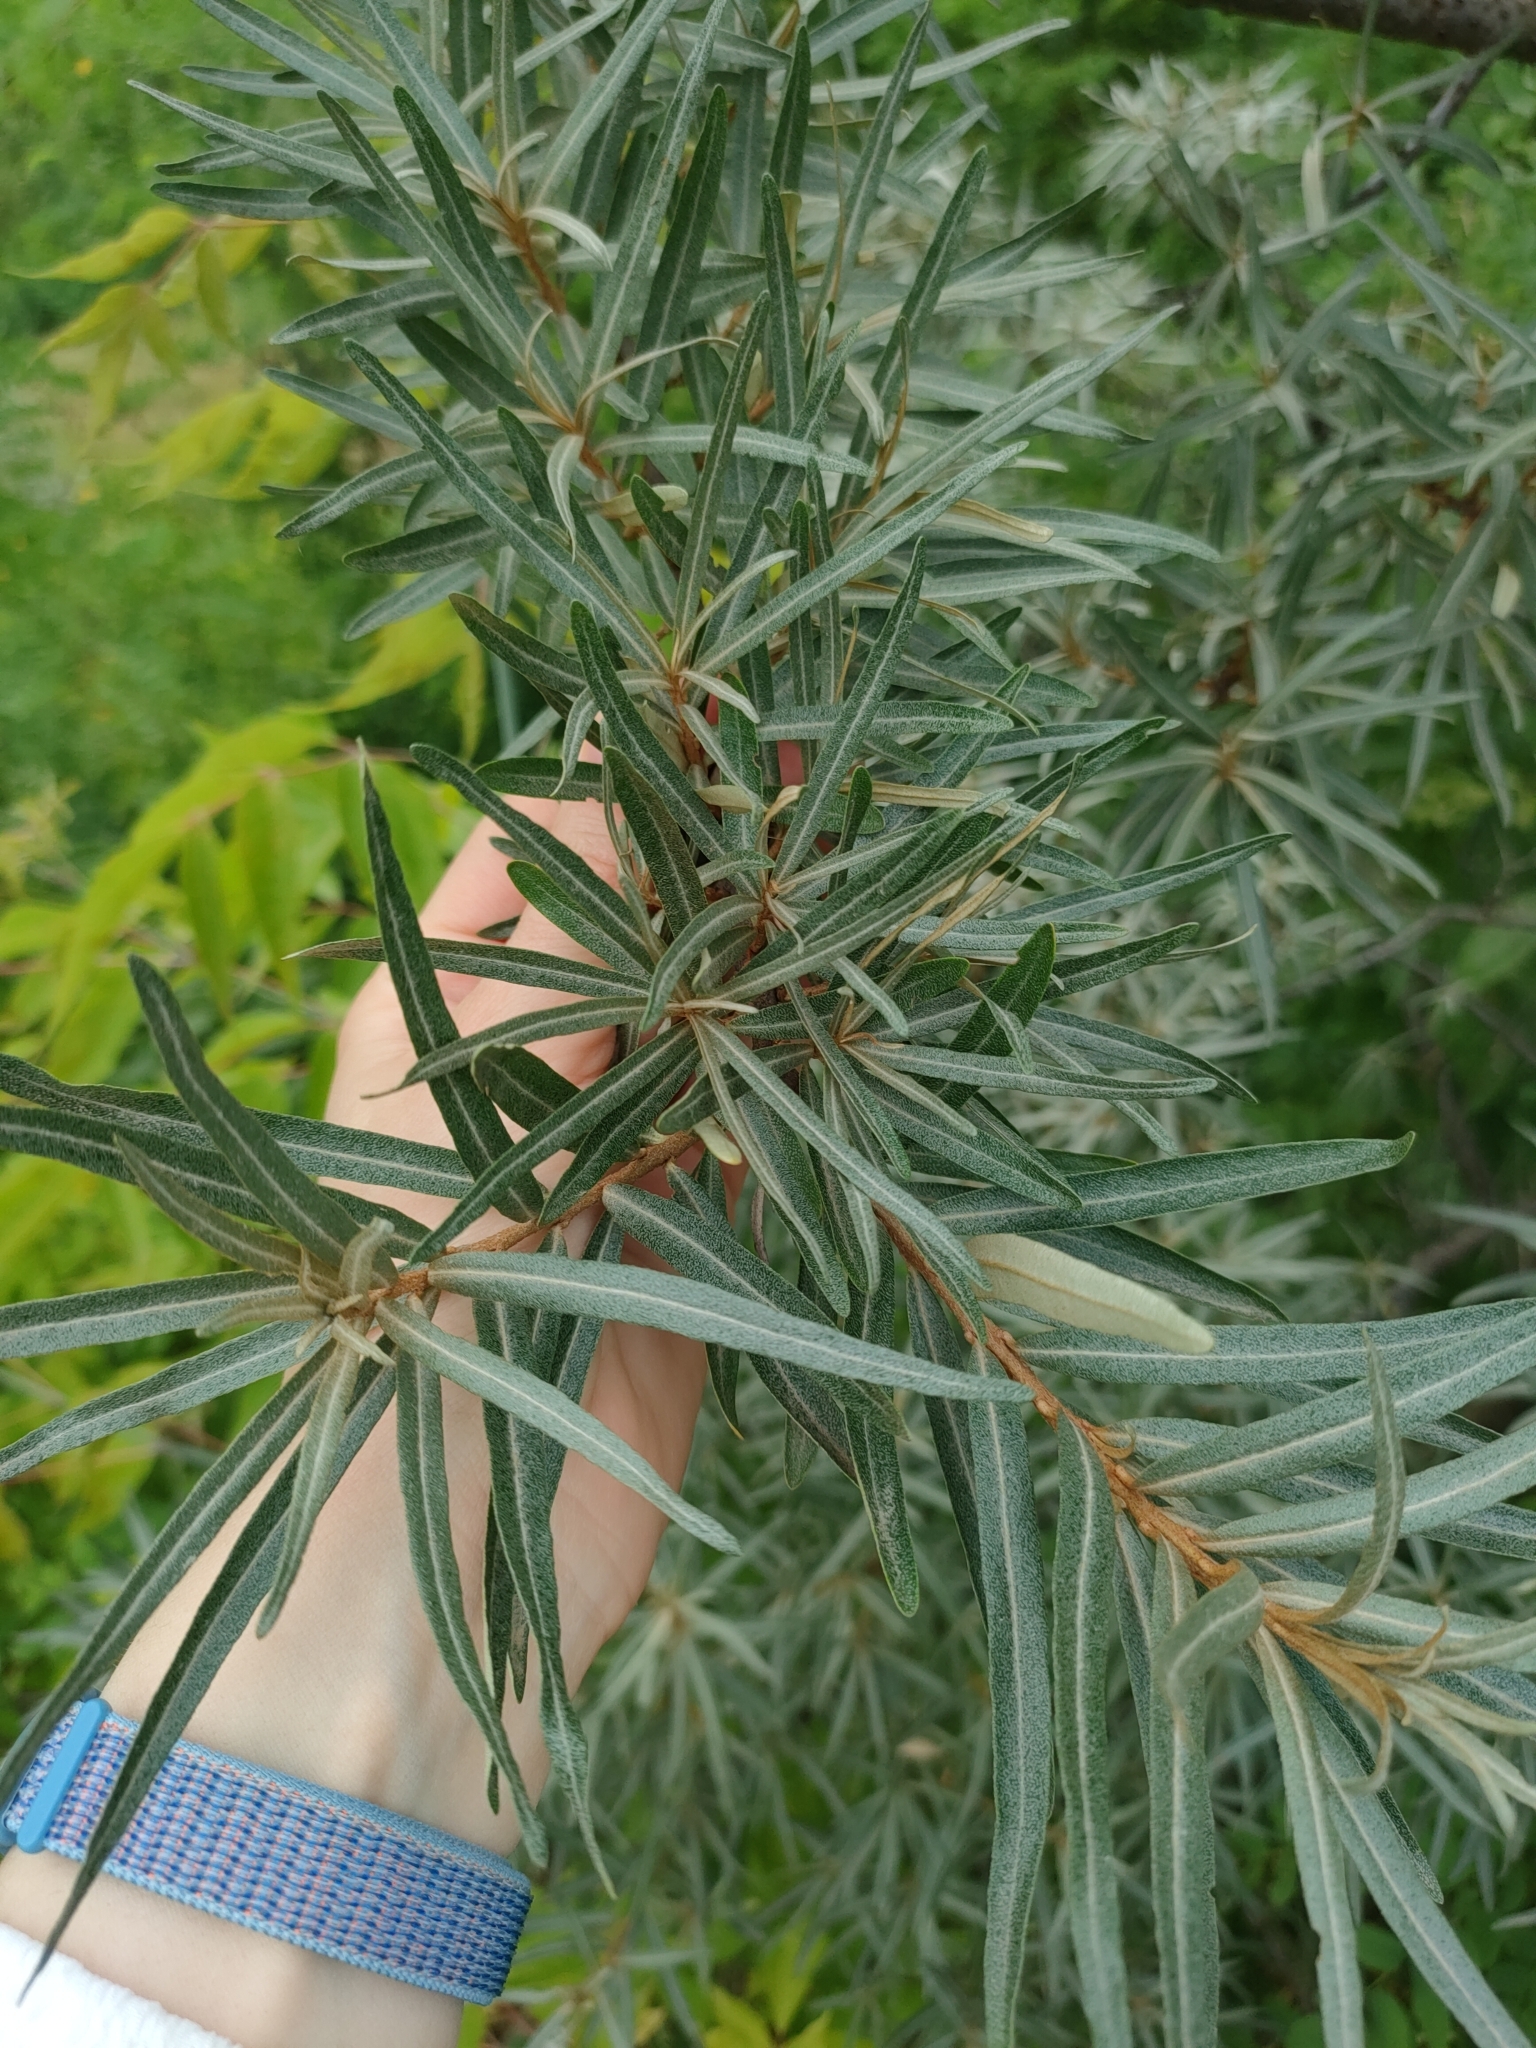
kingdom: Plantae
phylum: Tracheophyta
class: Magnoliopsida
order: Rosales
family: Elaeagnaceae
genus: Hippophae
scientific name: Hippophae rhamnoides
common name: Sea-buckthorn
